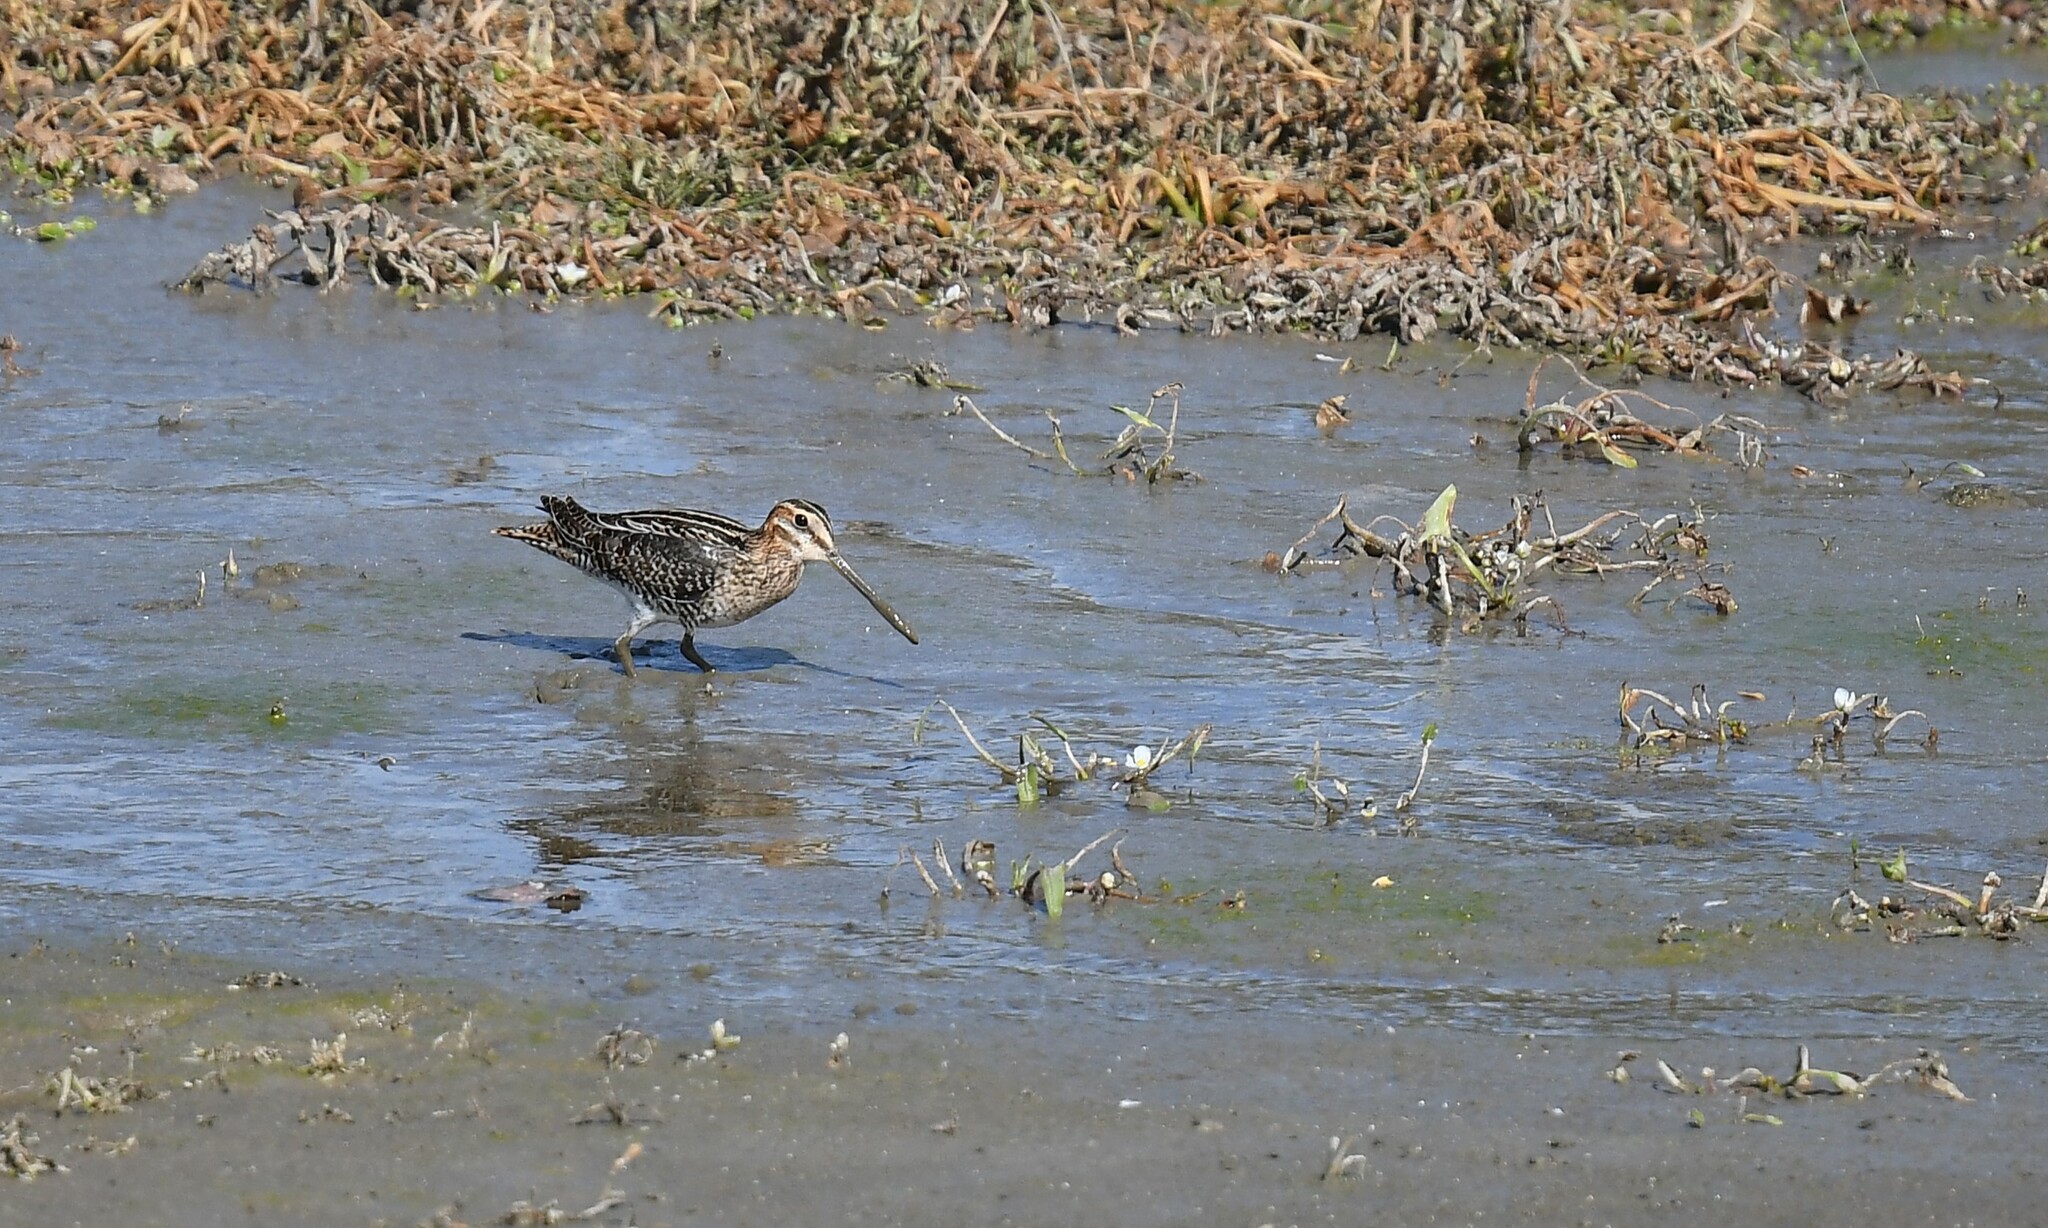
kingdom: Animalia
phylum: Chordata
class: Aves
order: Charadriiformes
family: Scolopacidae
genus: Gallinago
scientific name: Gallinago delicata
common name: Wilson's snipe
